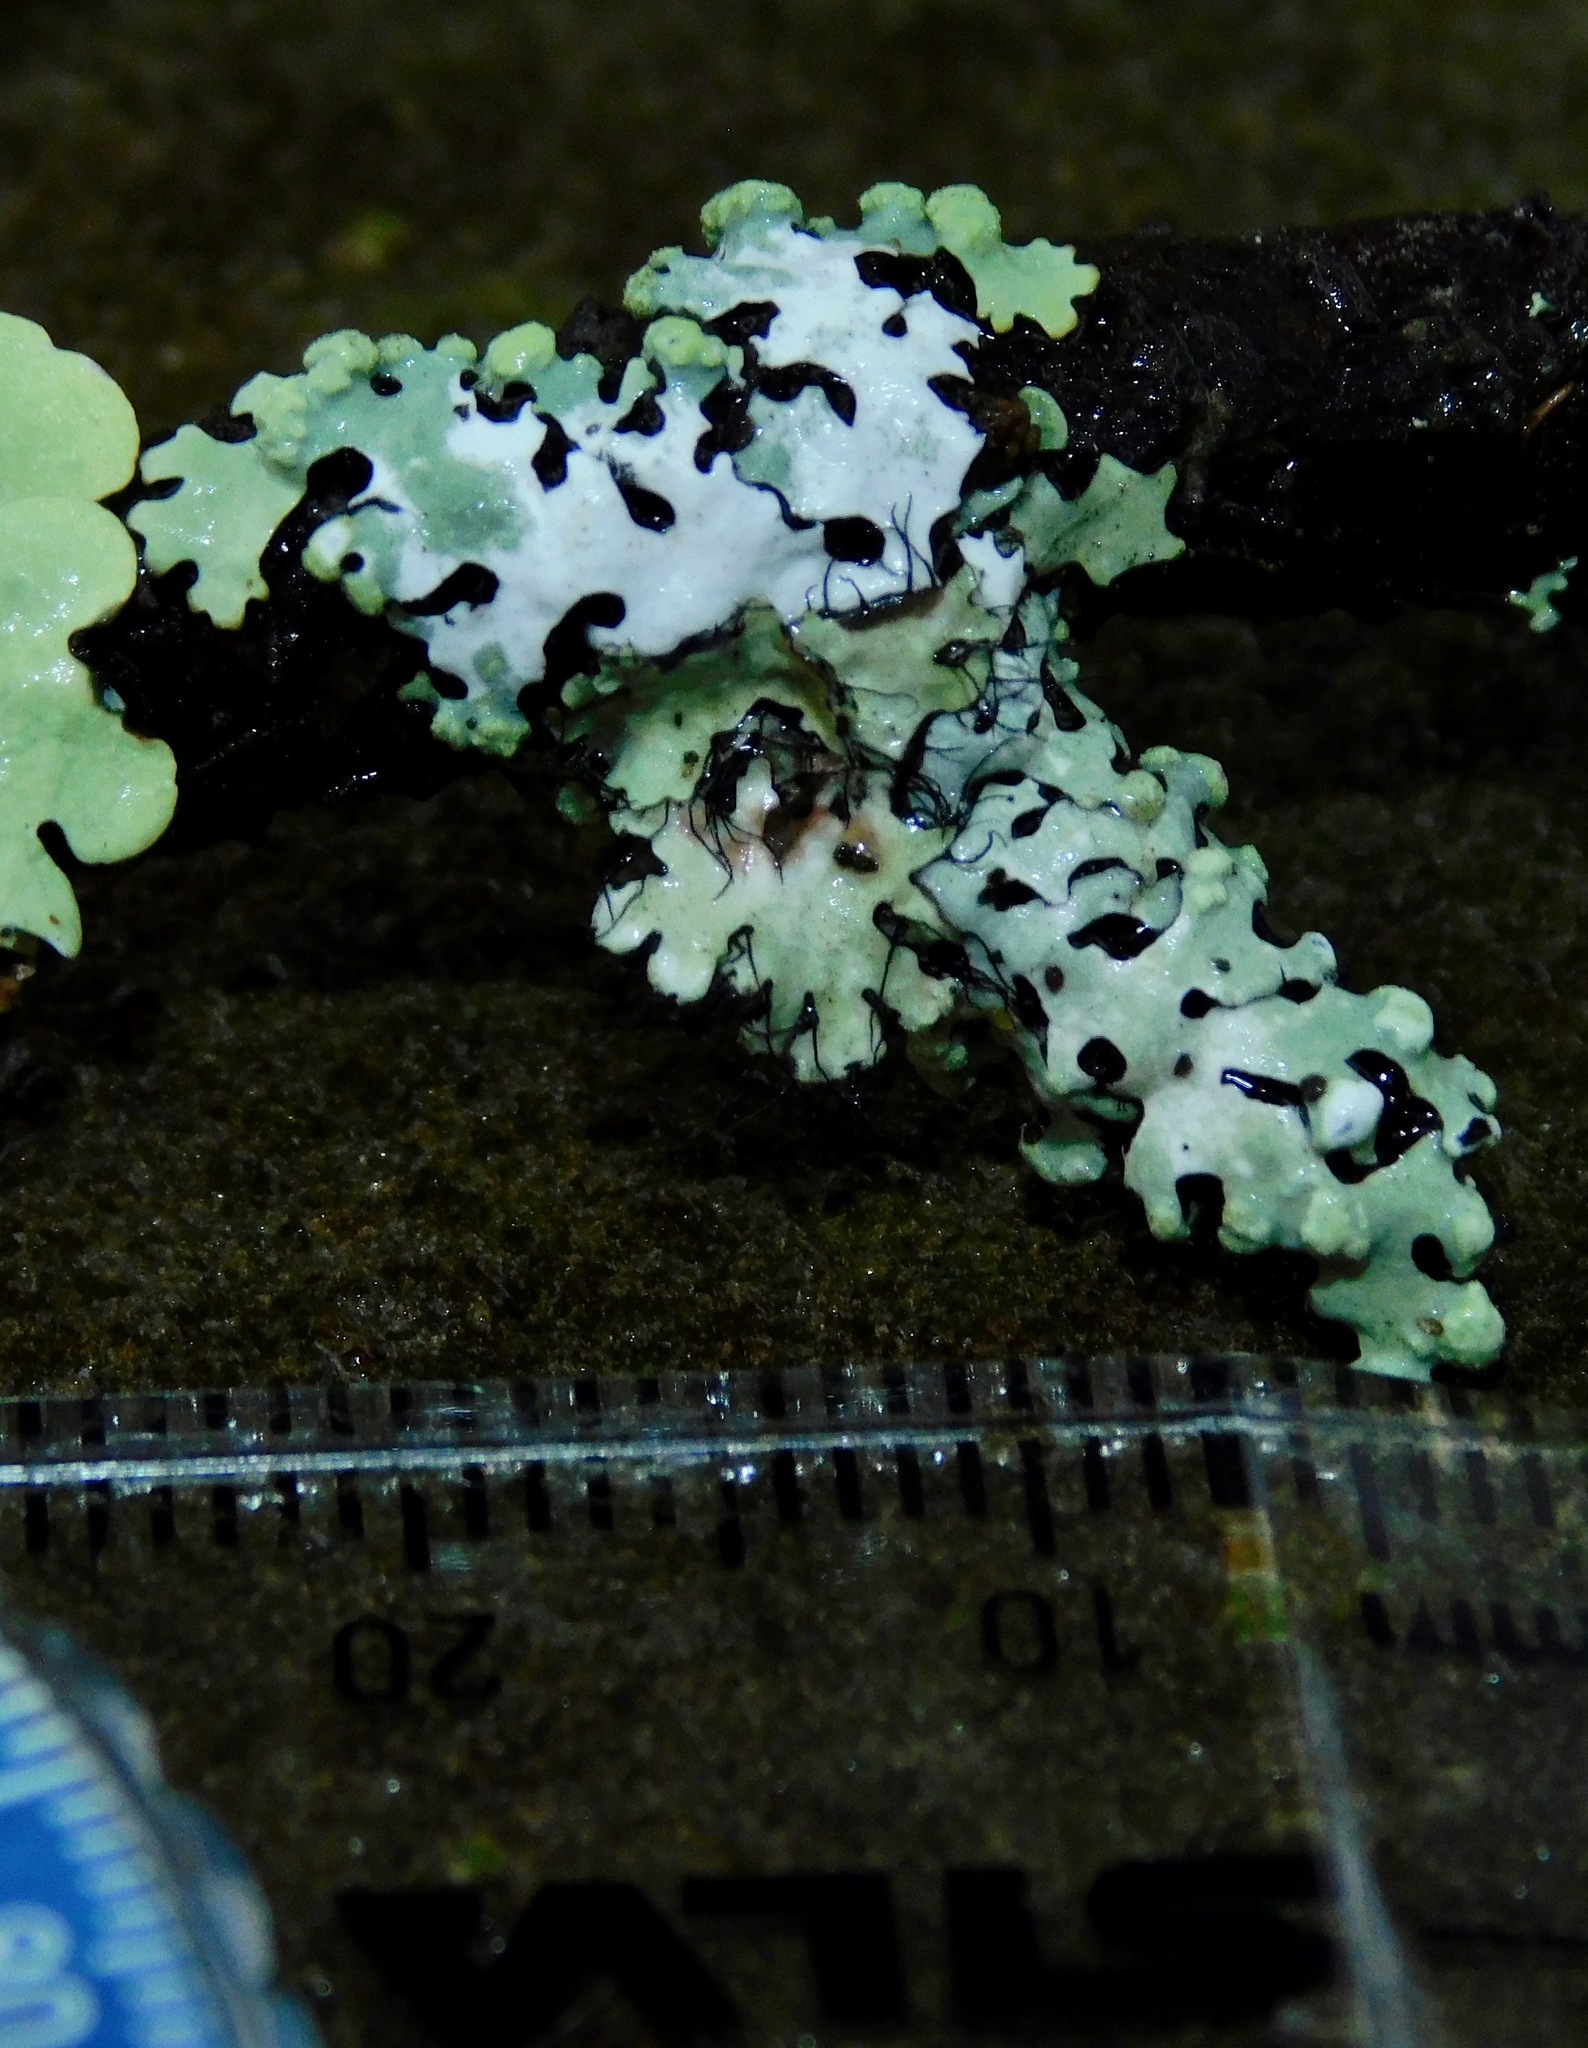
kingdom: Fungi
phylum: Ascomycota
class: Lecanoromycetes
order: Lecanorales
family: Parmeliaceae
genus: Myelochroa
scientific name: Myelochroa metarevoluta
